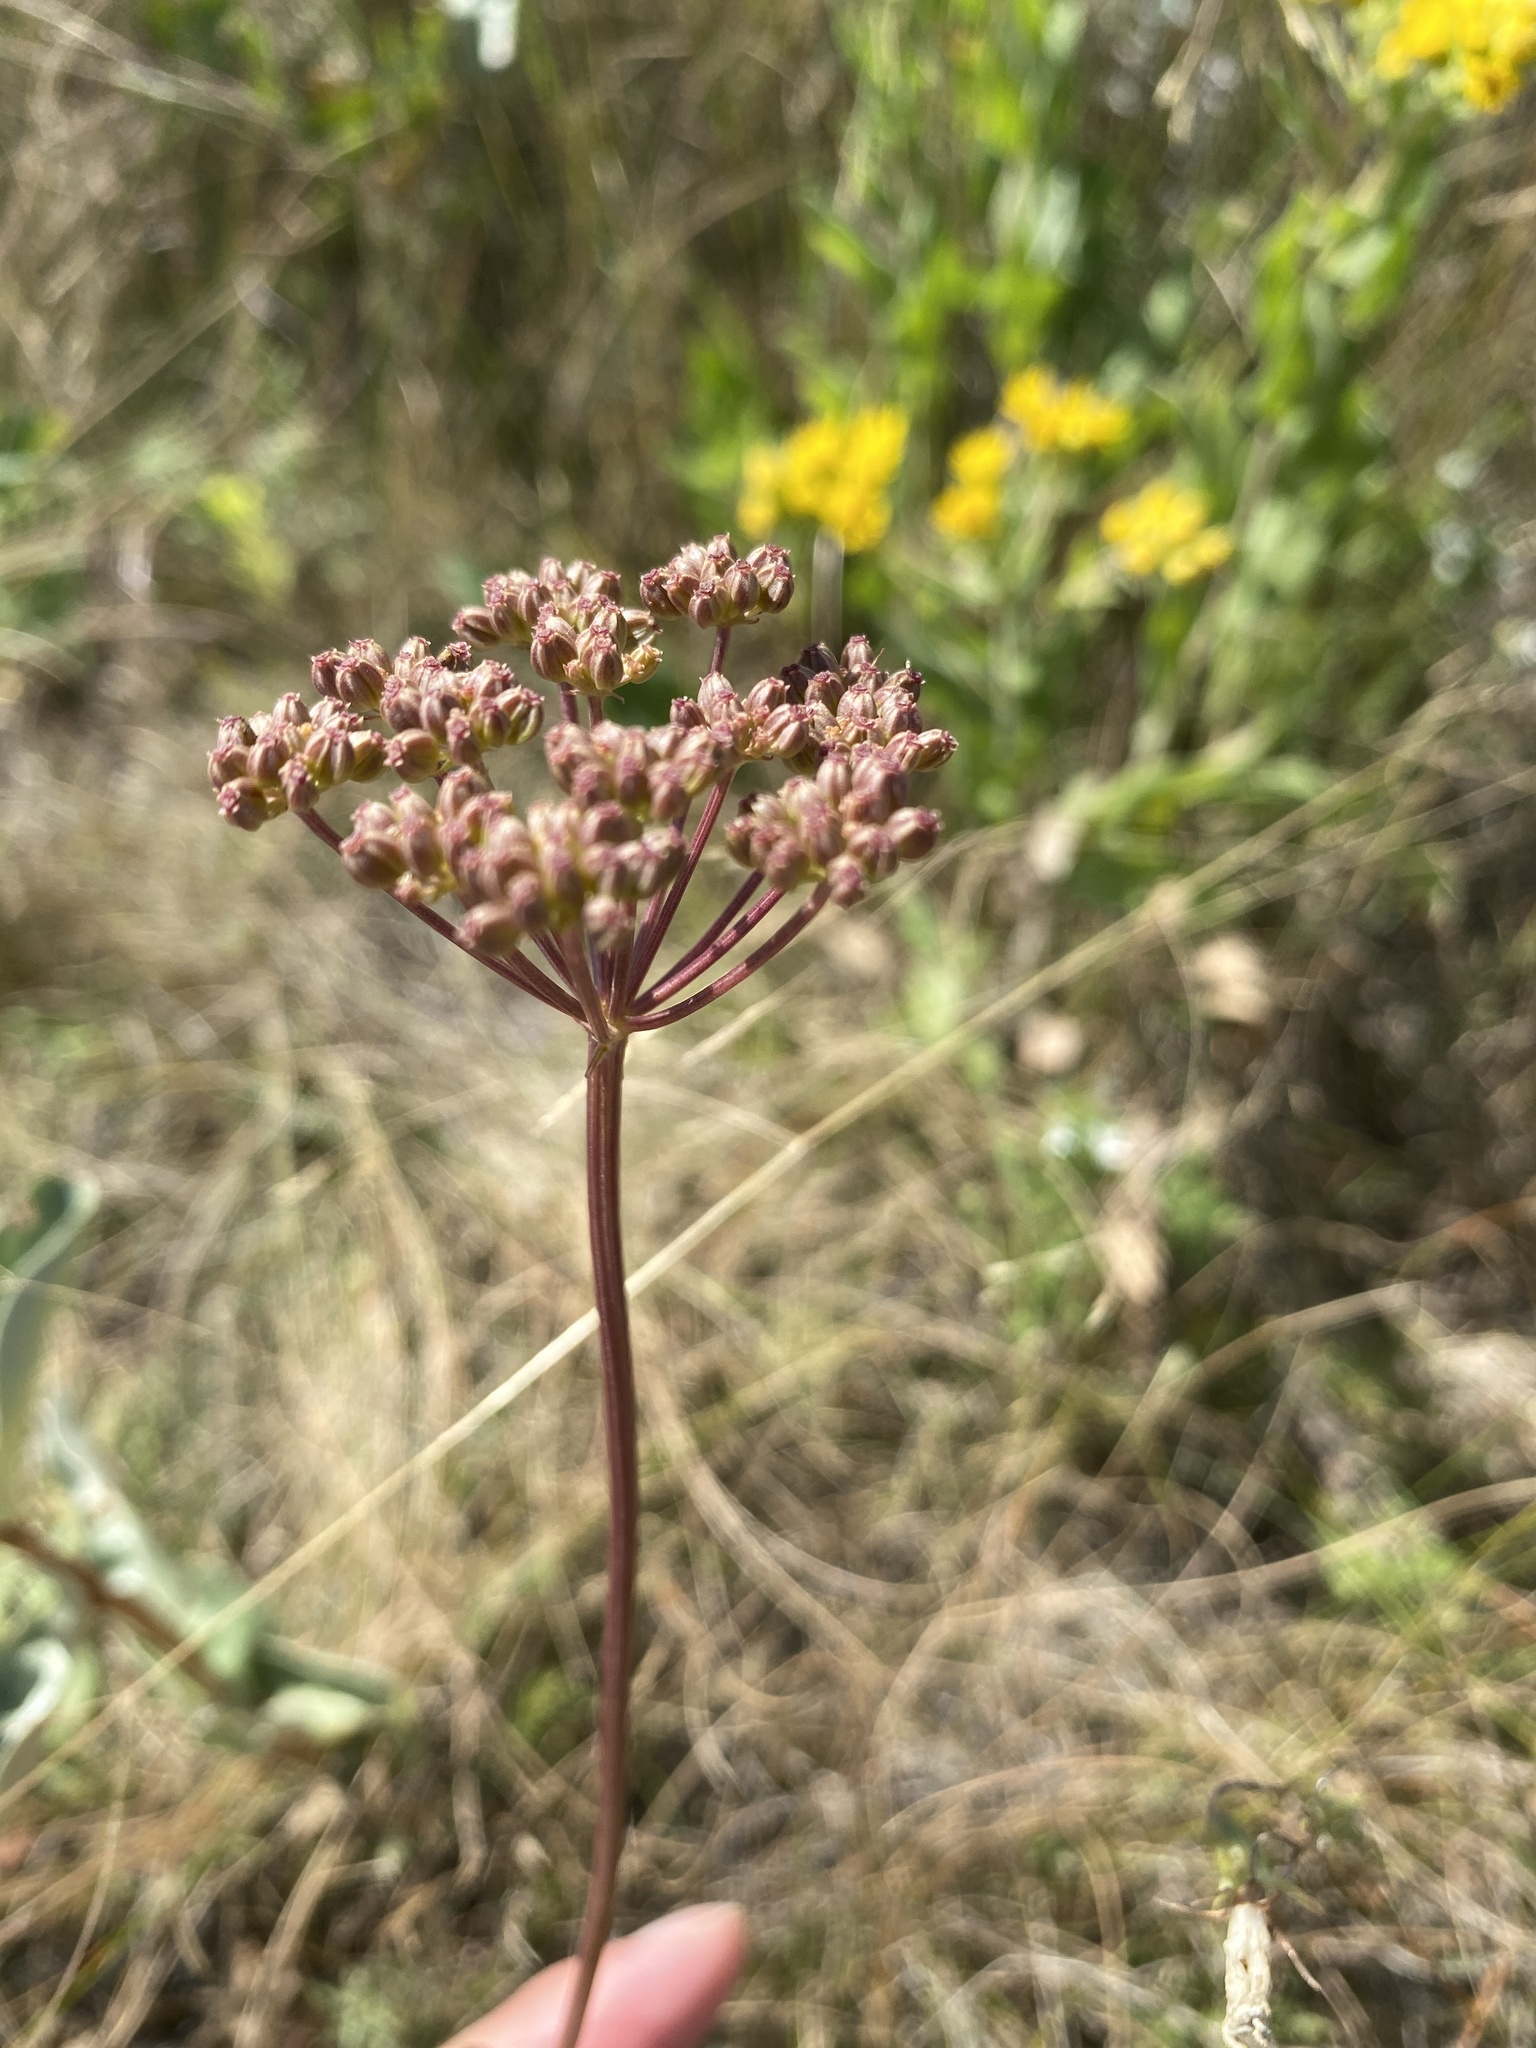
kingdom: Plantae
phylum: Tracheophyta
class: Magnoliopsida
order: Apiales
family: Apiaceae
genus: Zizia
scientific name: Zizia aptera
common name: Heart-leaved alexanders
